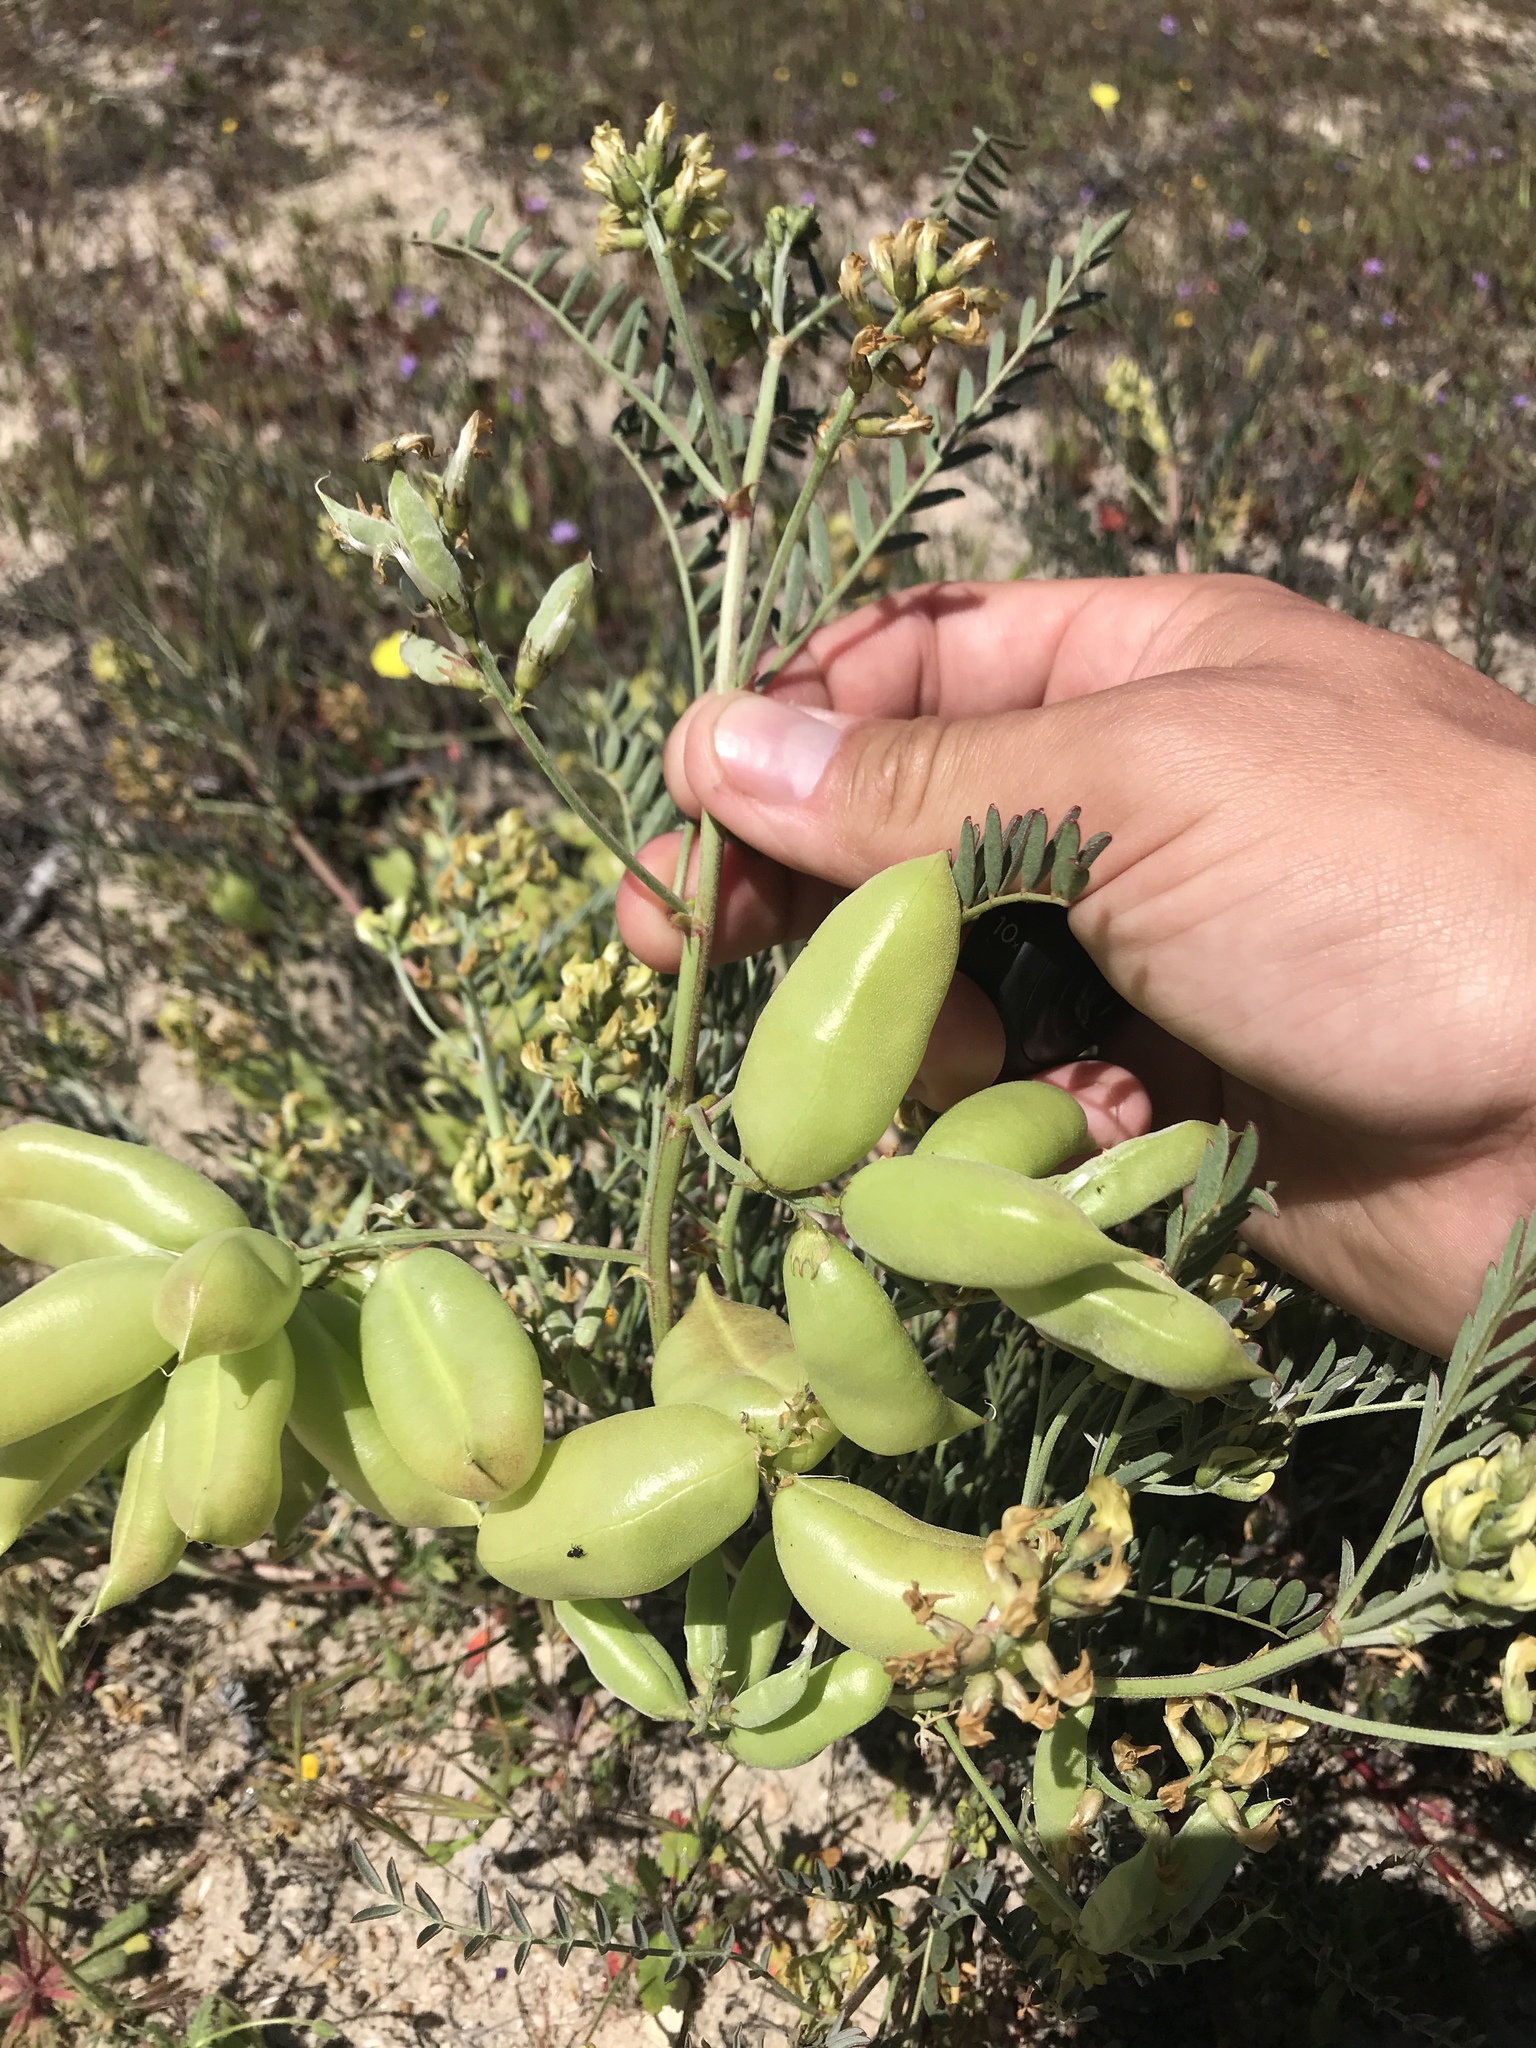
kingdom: Plantae
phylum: Tracheophyta
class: Magnoliopsida
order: Fabales
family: Fabaceae
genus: Astragalus
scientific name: Astragalus douglasii
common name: Jacumba milkvetch
